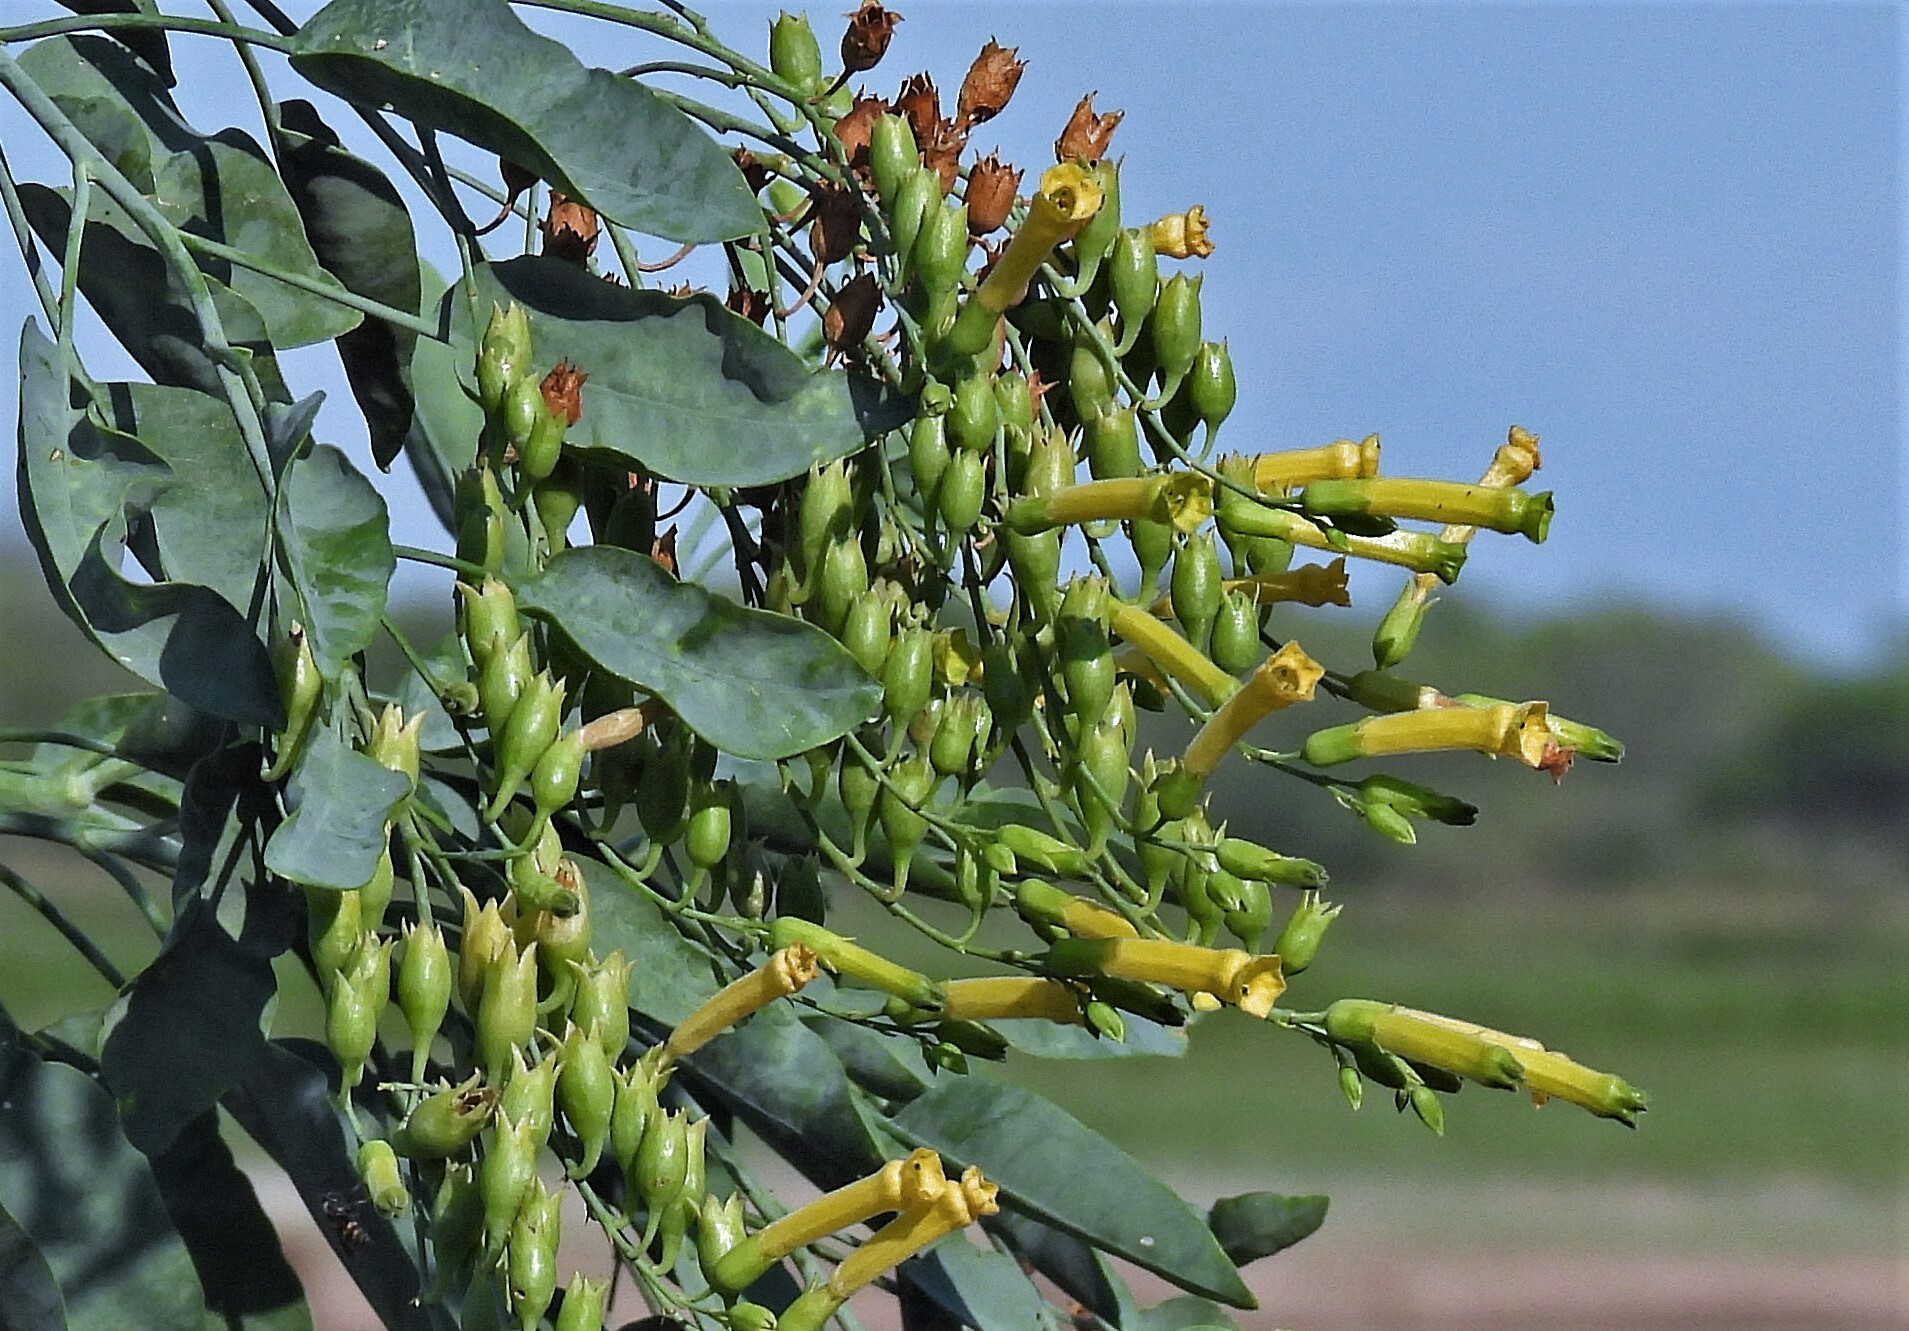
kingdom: Plantae
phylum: Tracheophyta
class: Magnoliopsida
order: Solanales
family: Solanaceae
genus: Nicotiana
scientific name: Nicotiana glauca
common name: Tree tobacco
